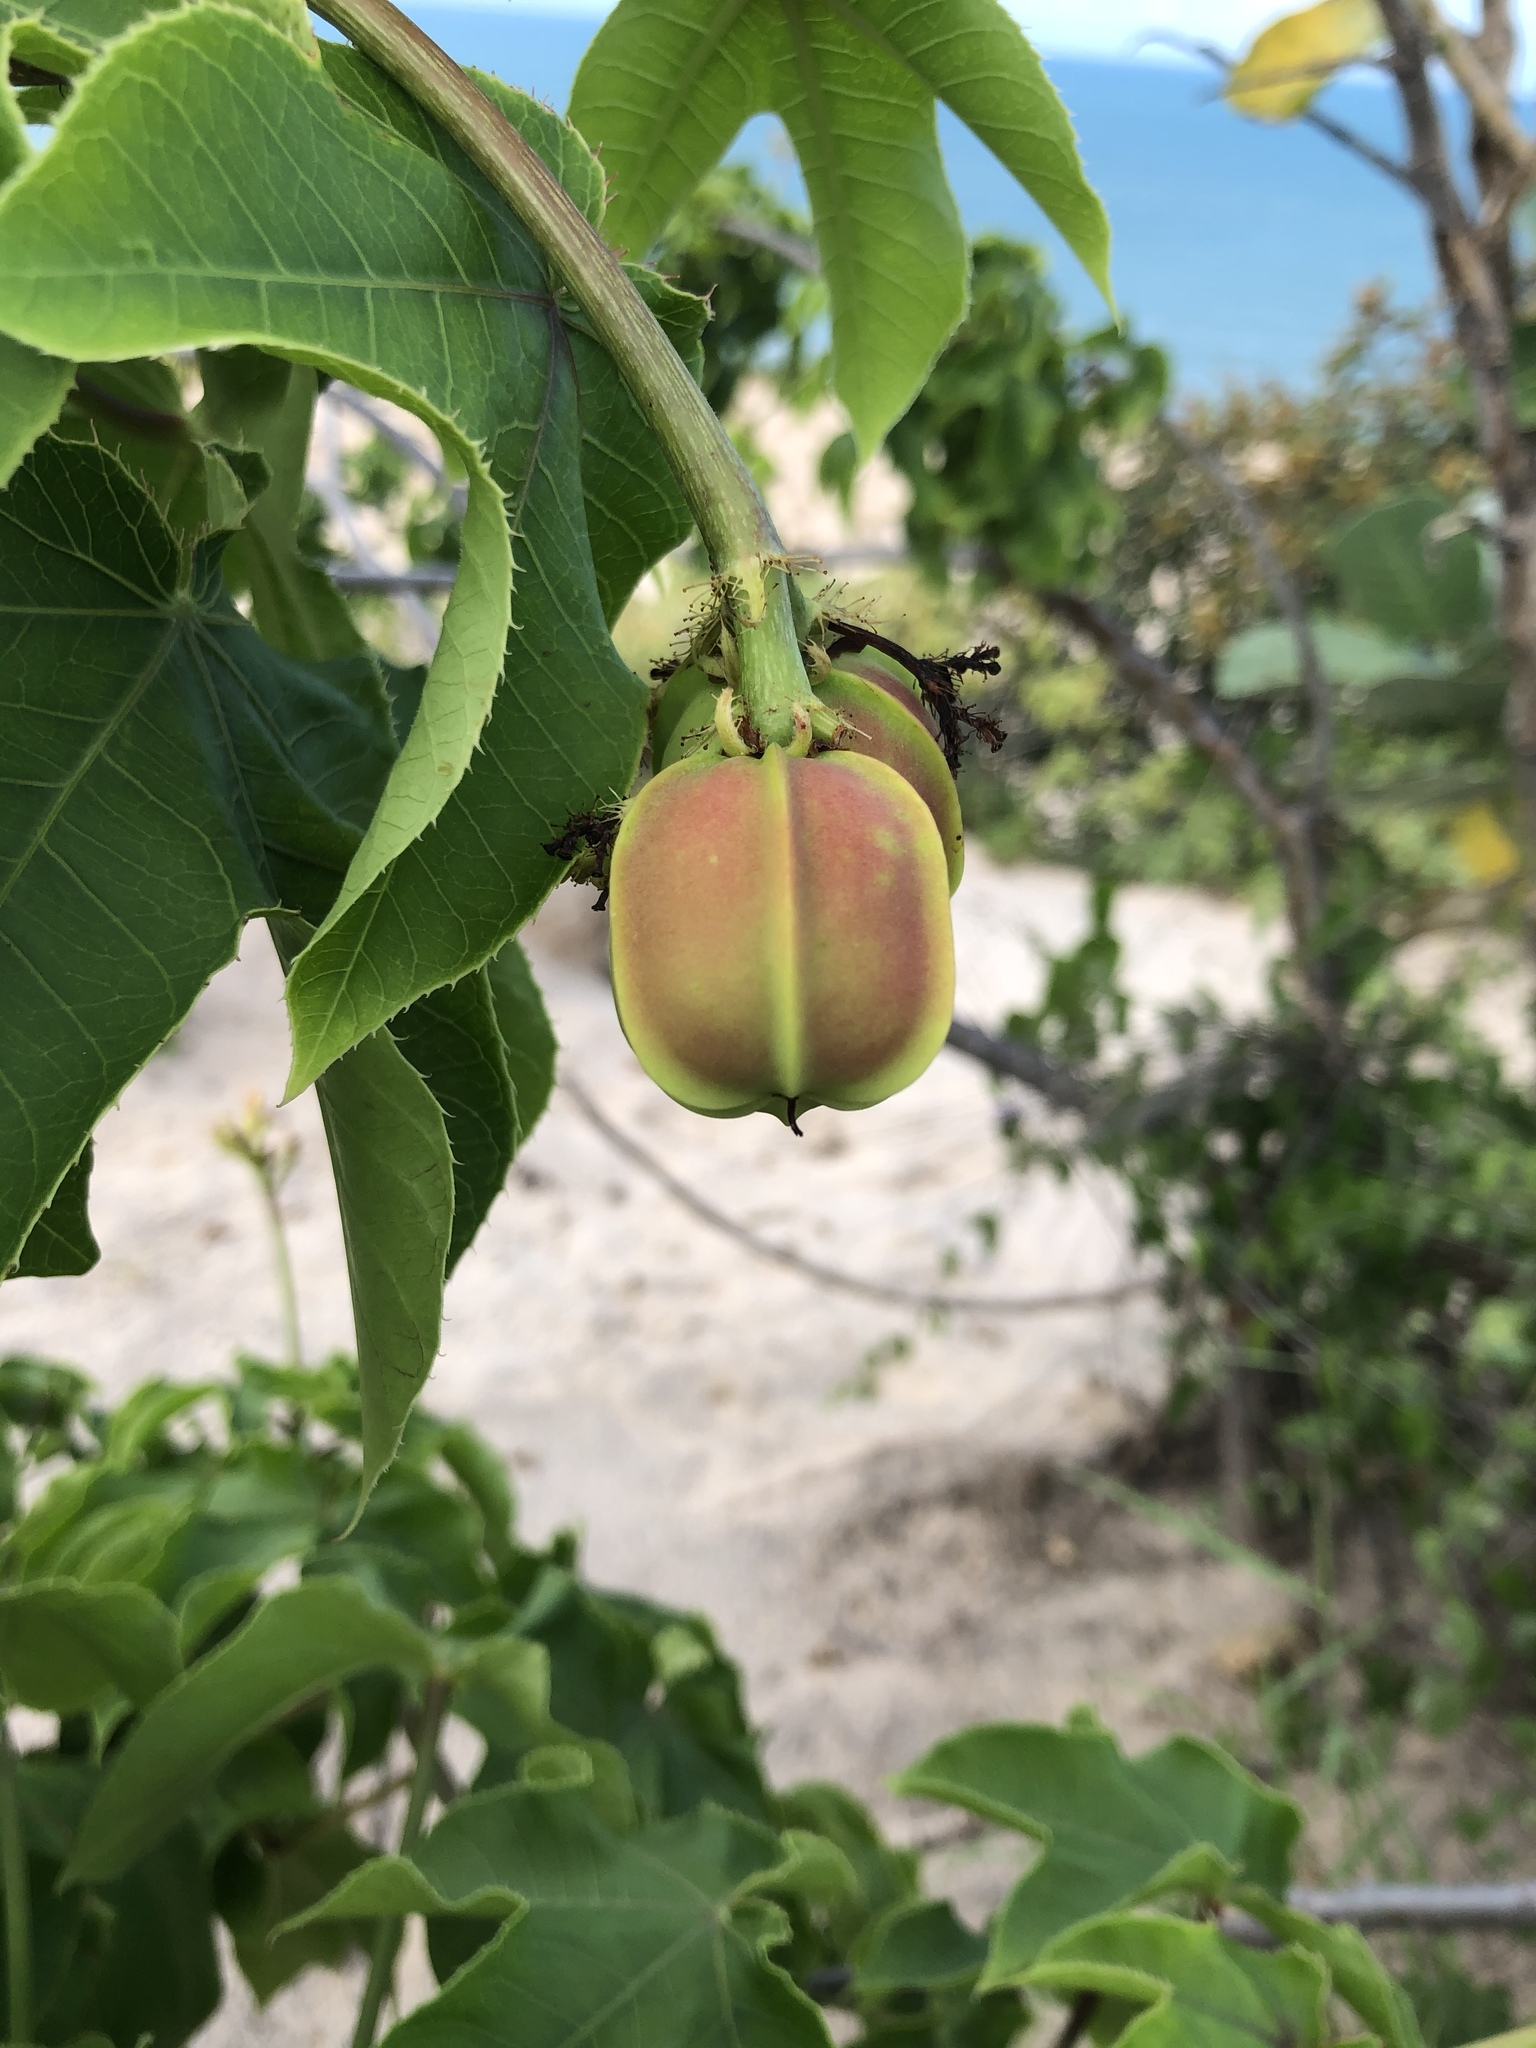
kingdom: Plantae
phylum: Tracheophyta
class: Magnoliopsida
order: Malpighiales
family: Euphorbiaceae
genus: Jatropha
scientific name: Jatropha mollissima
